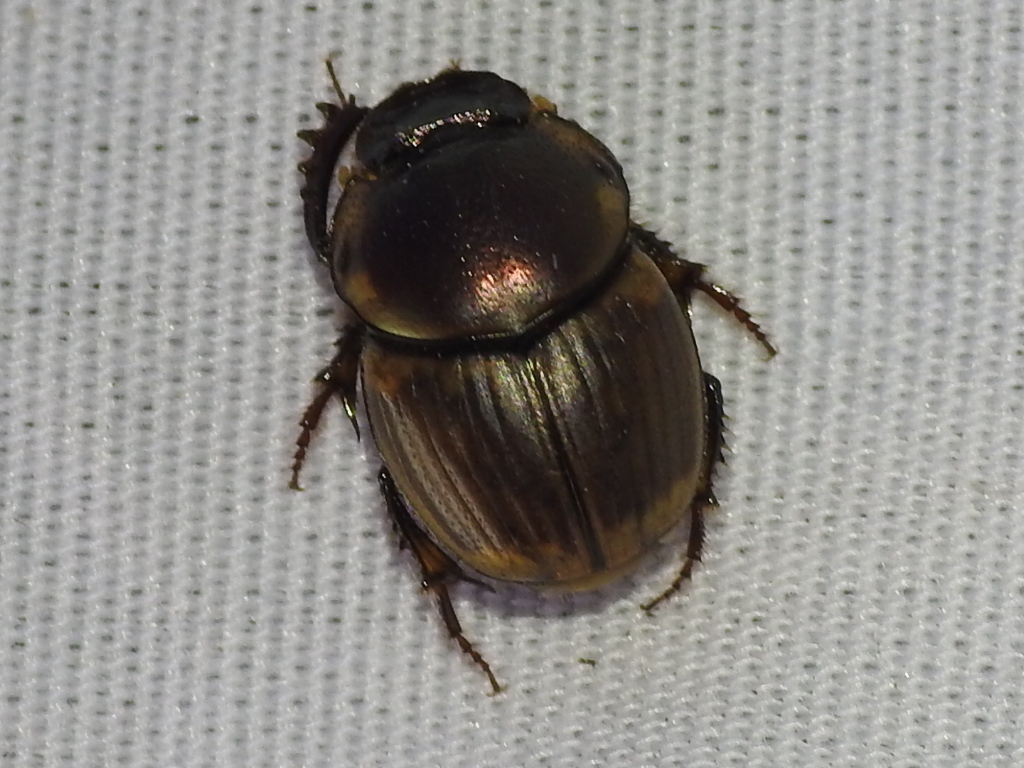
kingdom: Animalia
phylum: Arthropoda
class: Insecta
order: Coleoptera
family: Scarabaeidae
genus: Digitonthophagus
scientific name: Digitonthophagus gazella
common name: Brown dung beetle
